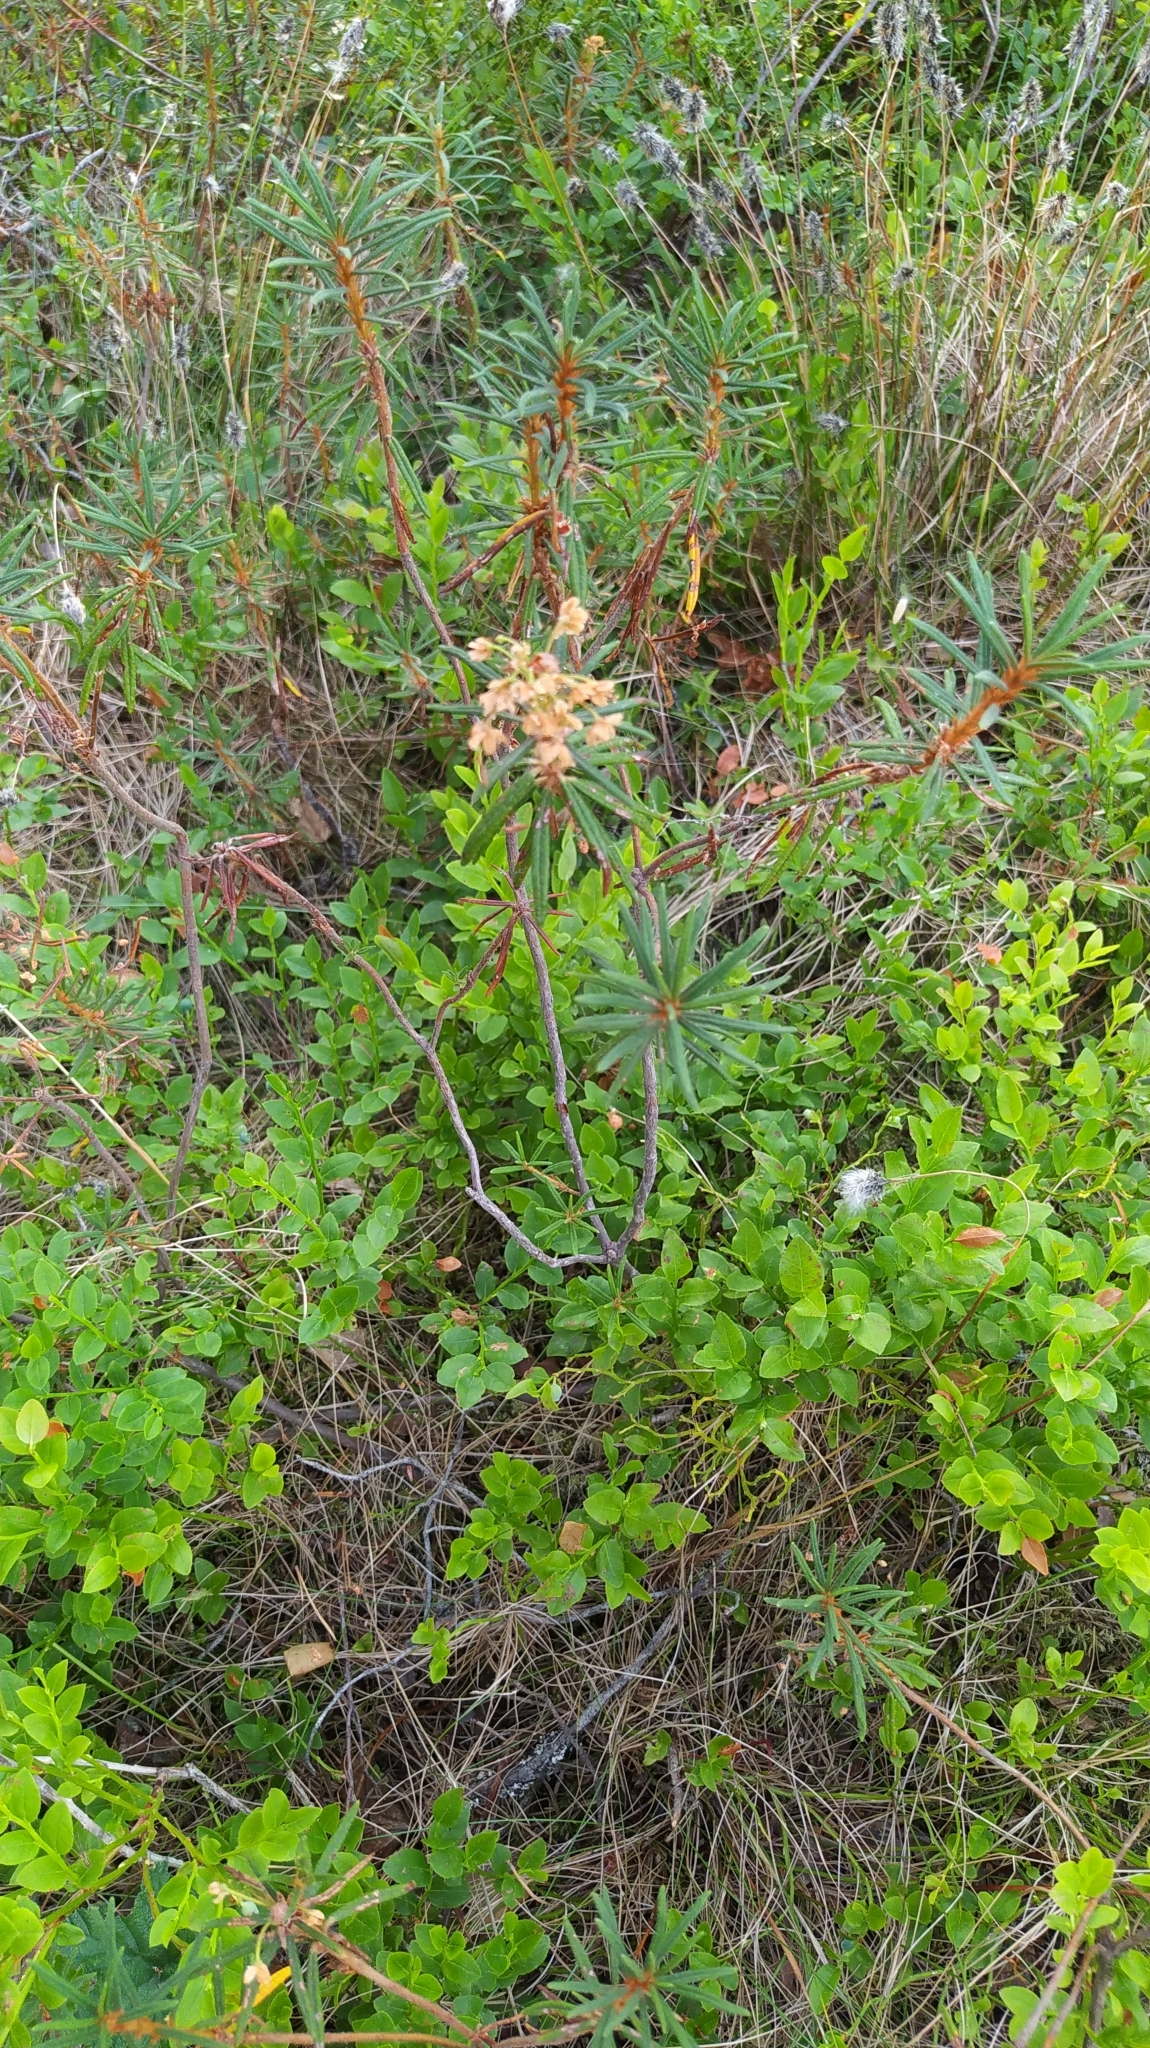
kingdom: Plantae
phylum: Tracheophyta
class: Magnoliopsida
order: Ericales
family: Ericaceae
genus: Rhododendron
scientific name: Rhododendron tomentosum
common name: Marsh labrador tea
